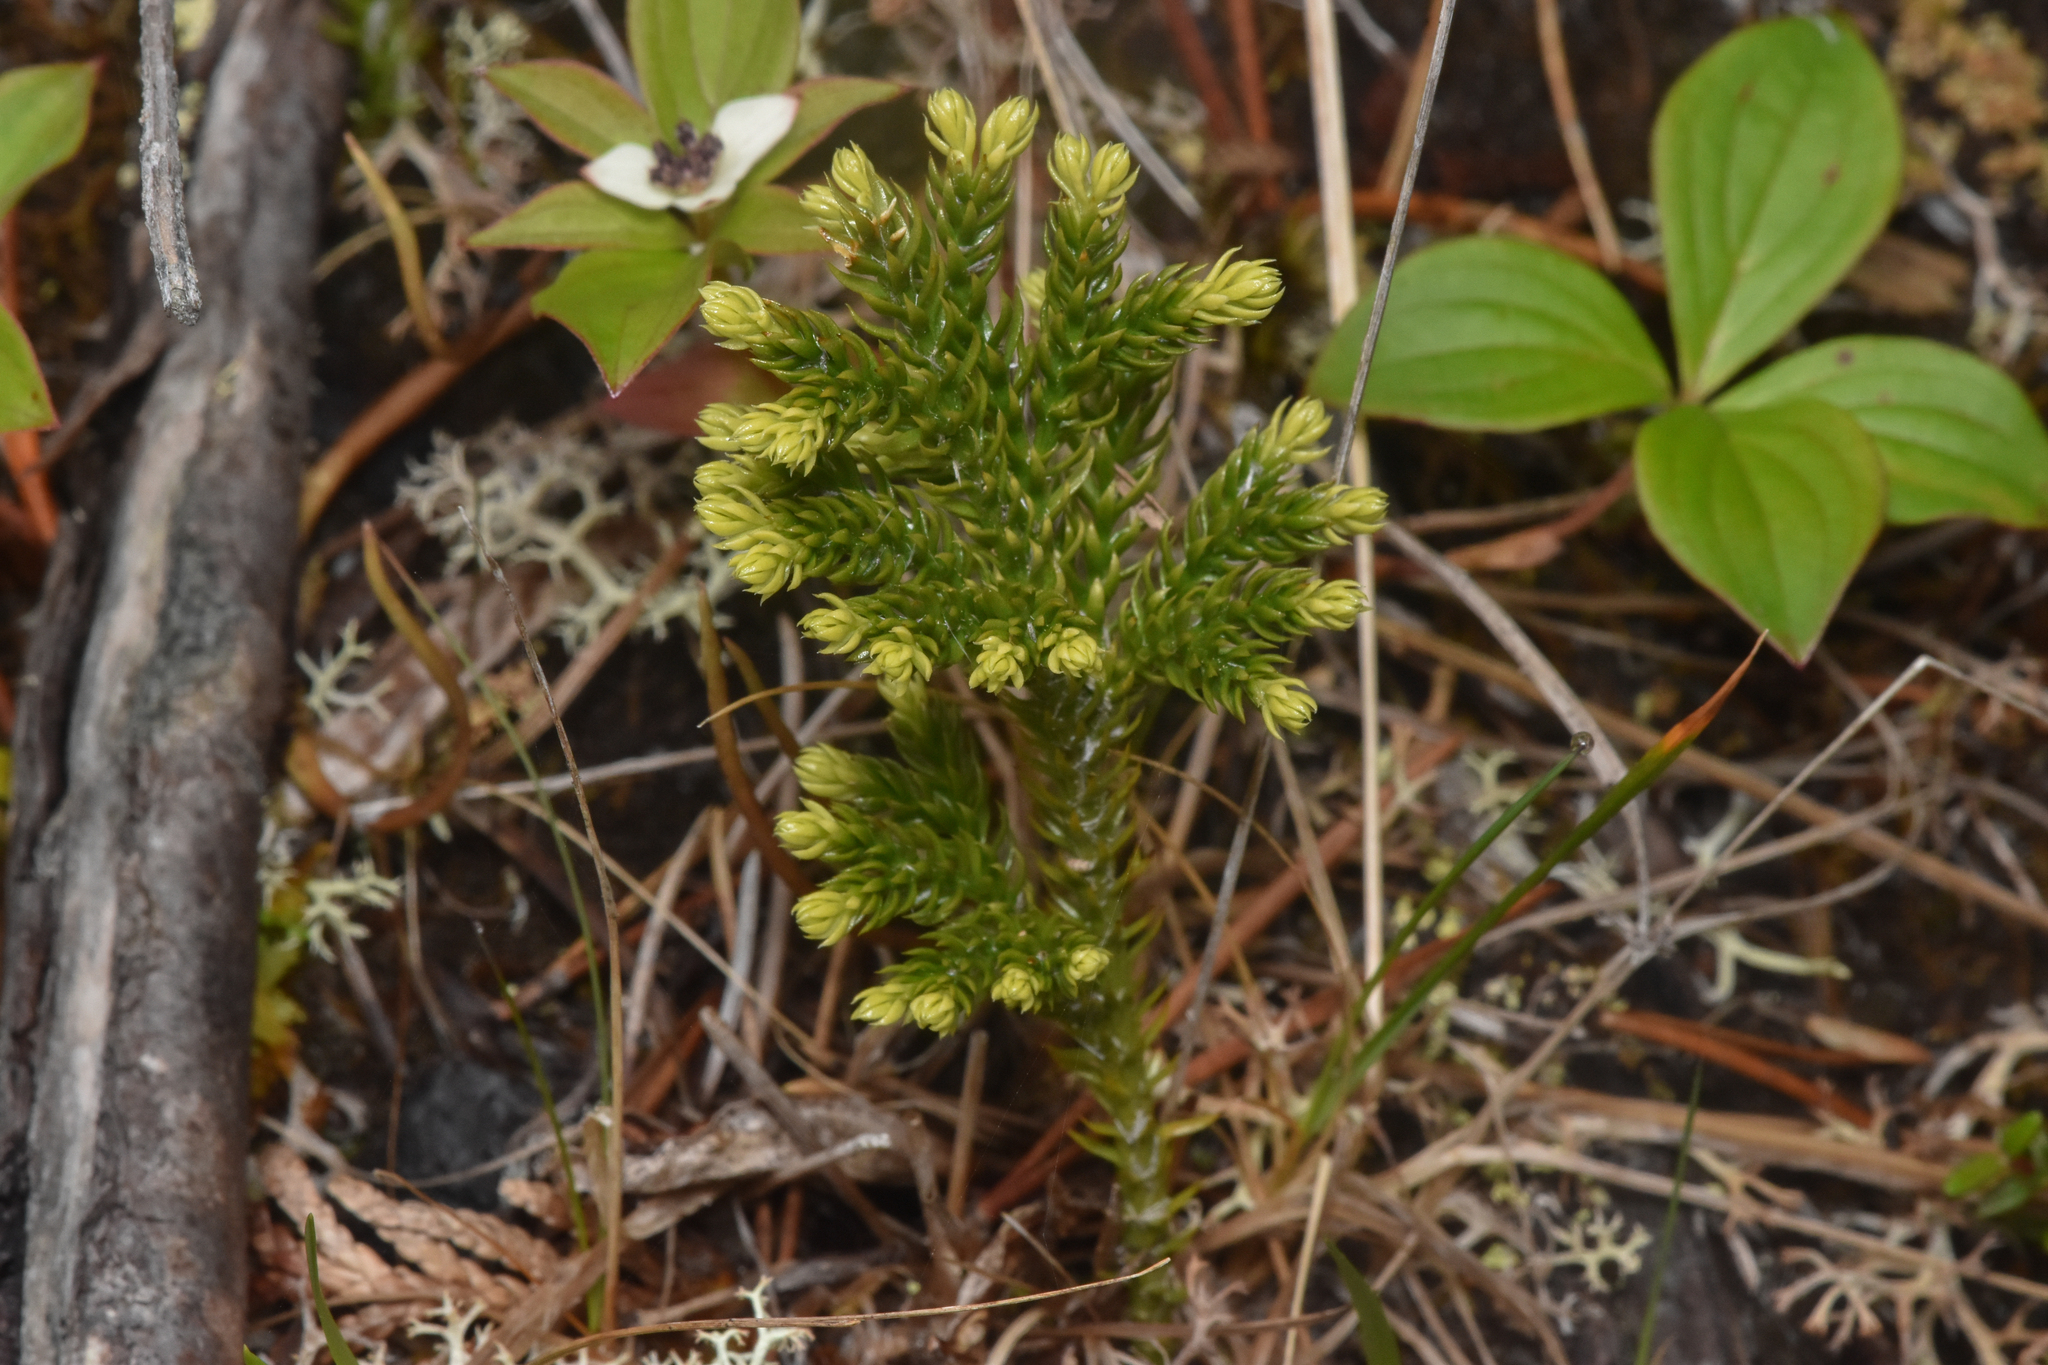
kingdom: Plantae
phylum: Tracheophyta
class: Lycopodiopsida
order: Lycopodiales
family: Lycopodiaceae
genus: Dendrolycopodium
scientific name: Dendrolycopodium dendroideum
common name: Northern tree-clubmoss
